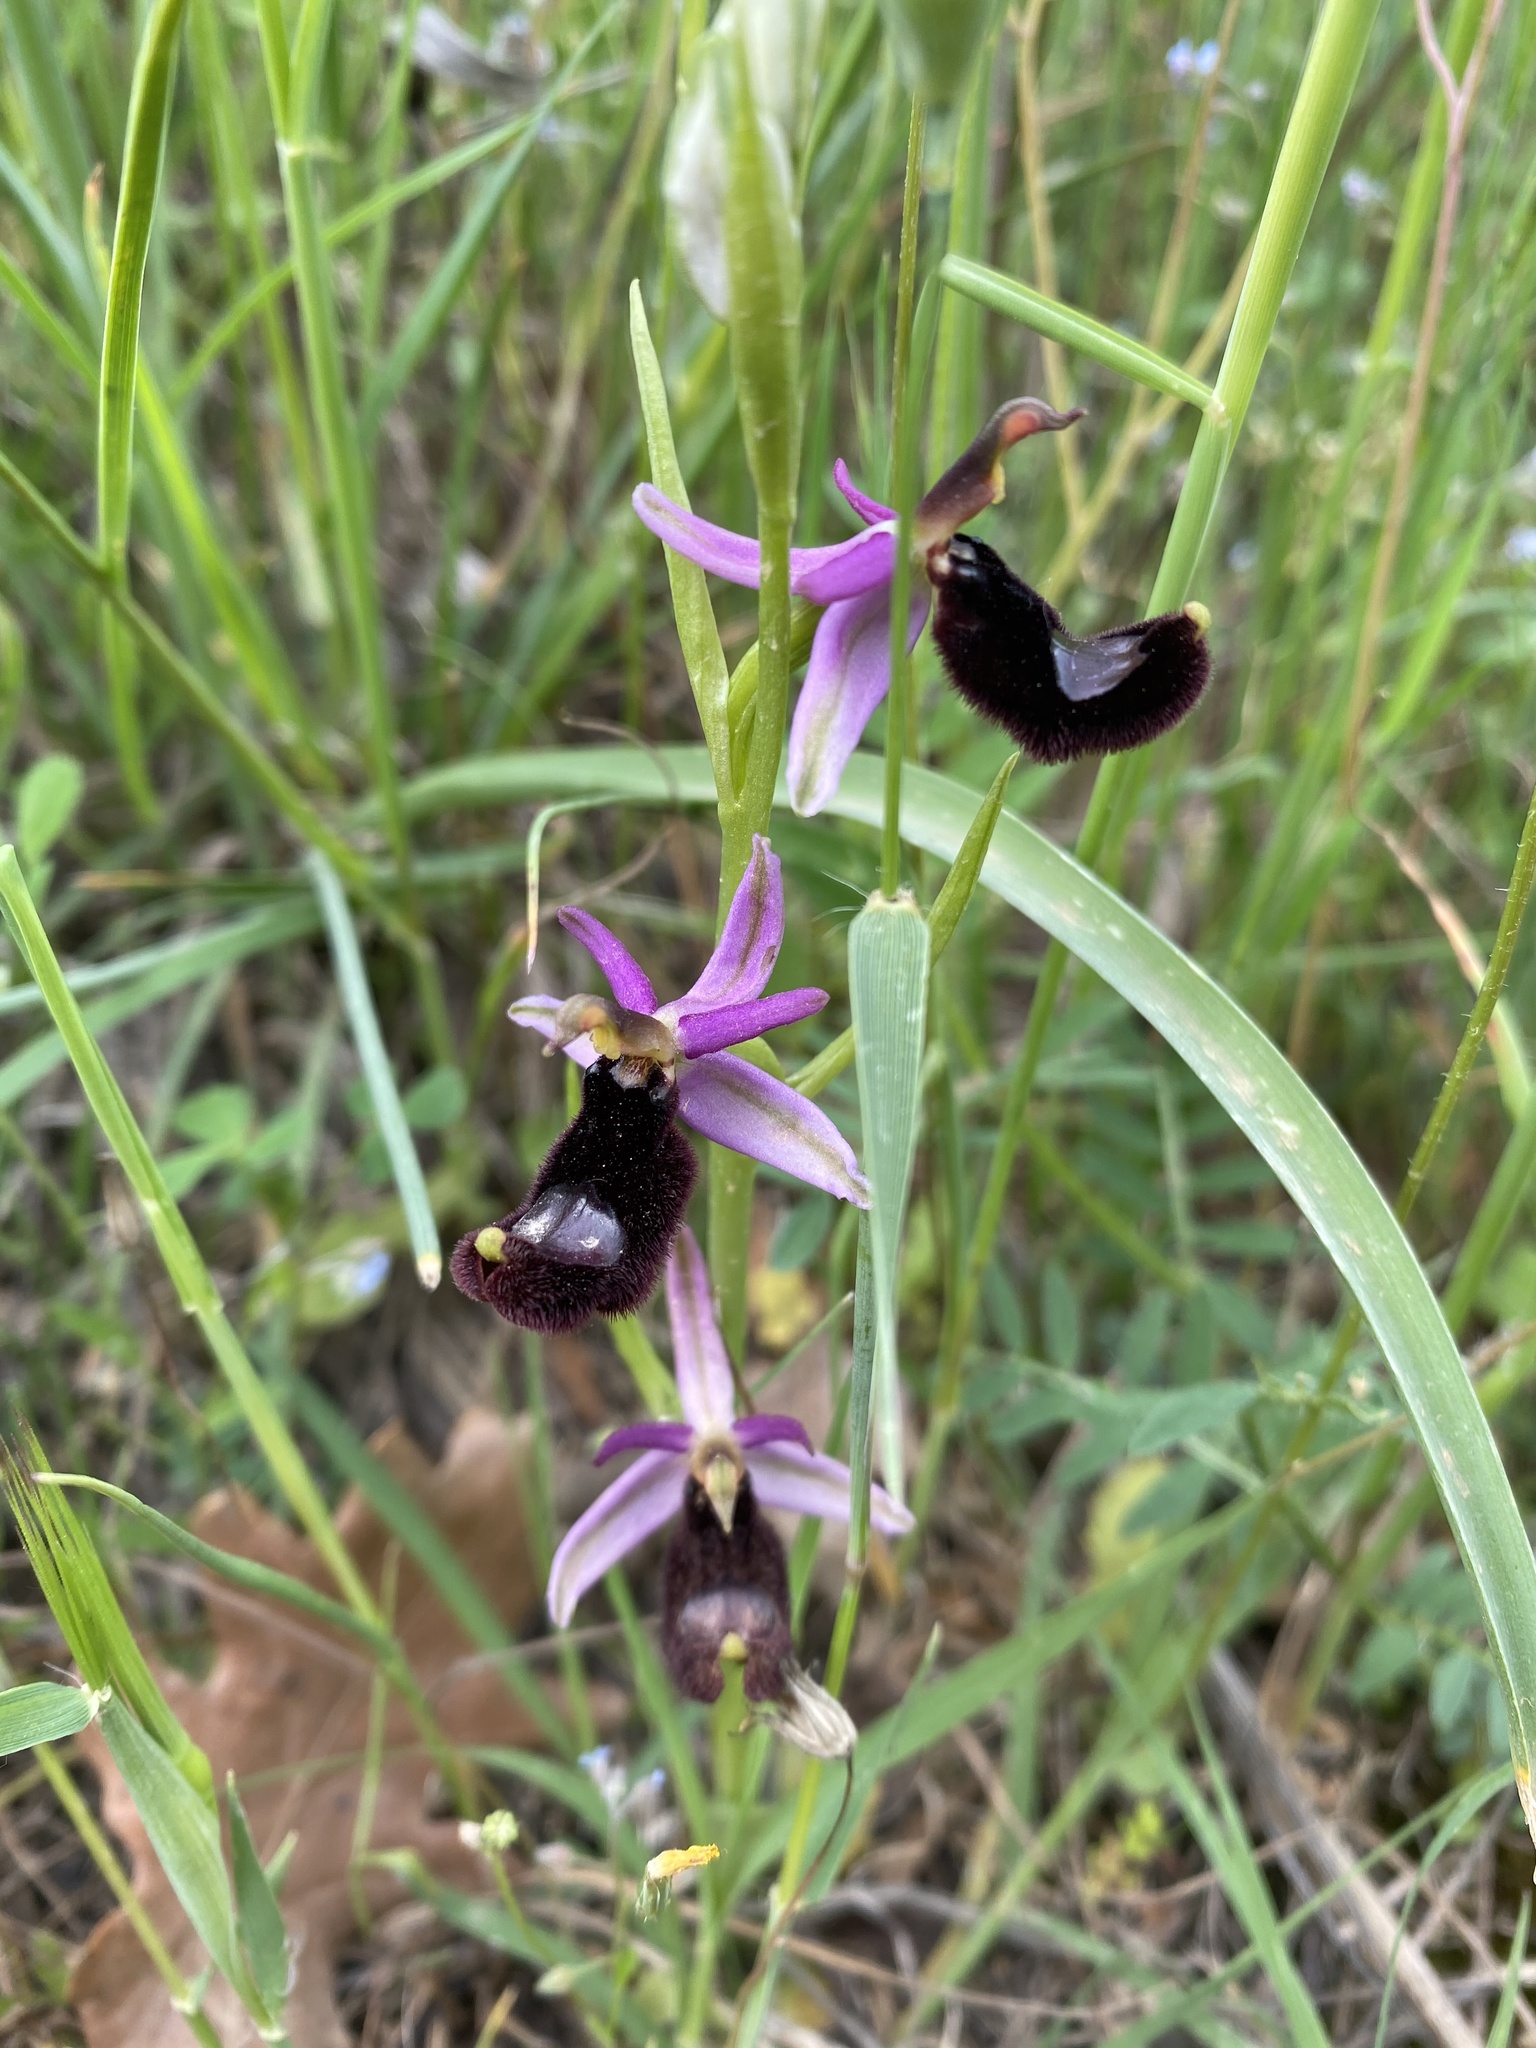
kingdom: Plantae
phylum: Tracheophyta
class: Liliopsida
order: Asparagales
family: Orchidaceae
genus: Ophrys
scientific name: Ophrys bertolonii
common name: Bertoloni's bee orchid
